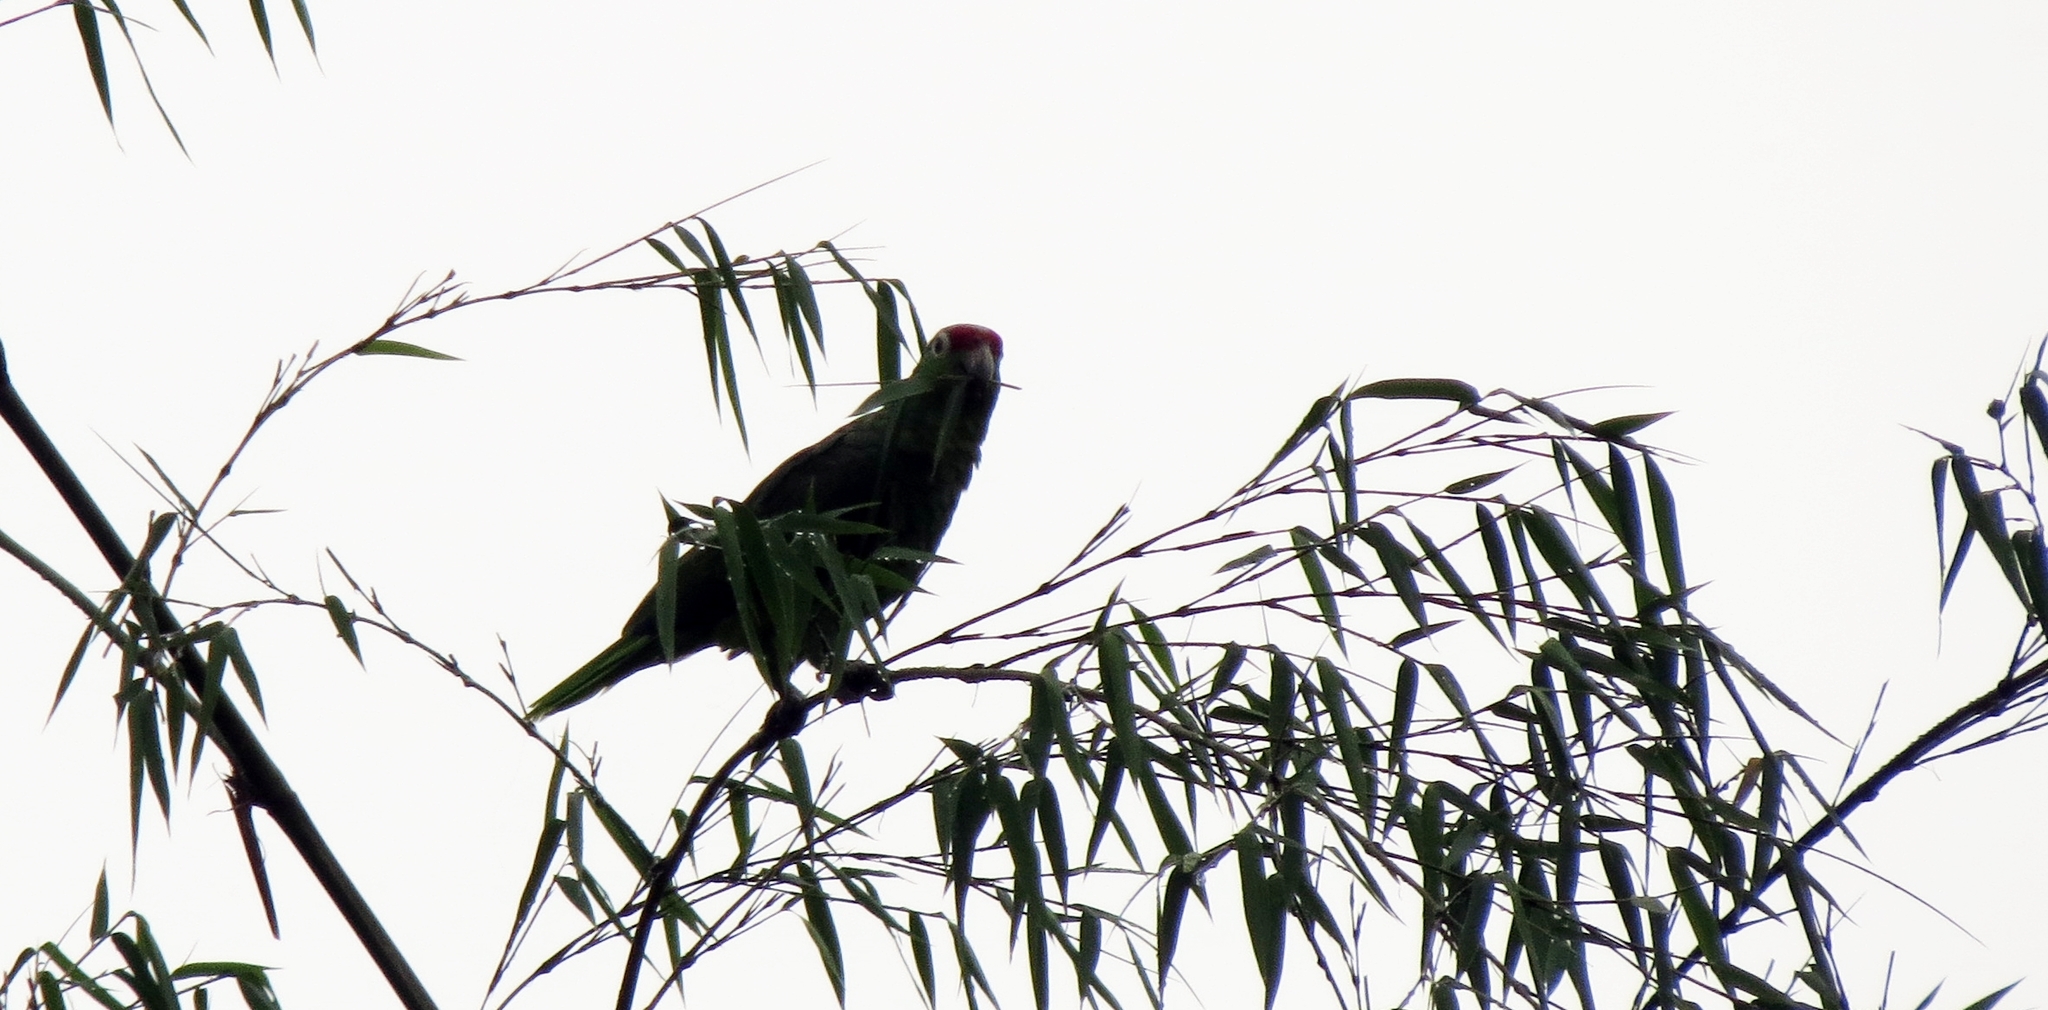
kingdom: Animalia
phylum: Chordata
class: Aves
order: Psittaciformes
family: Psittacidae
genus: Amazona
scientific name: Amazona autumnalis
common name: Red-lored amazon
